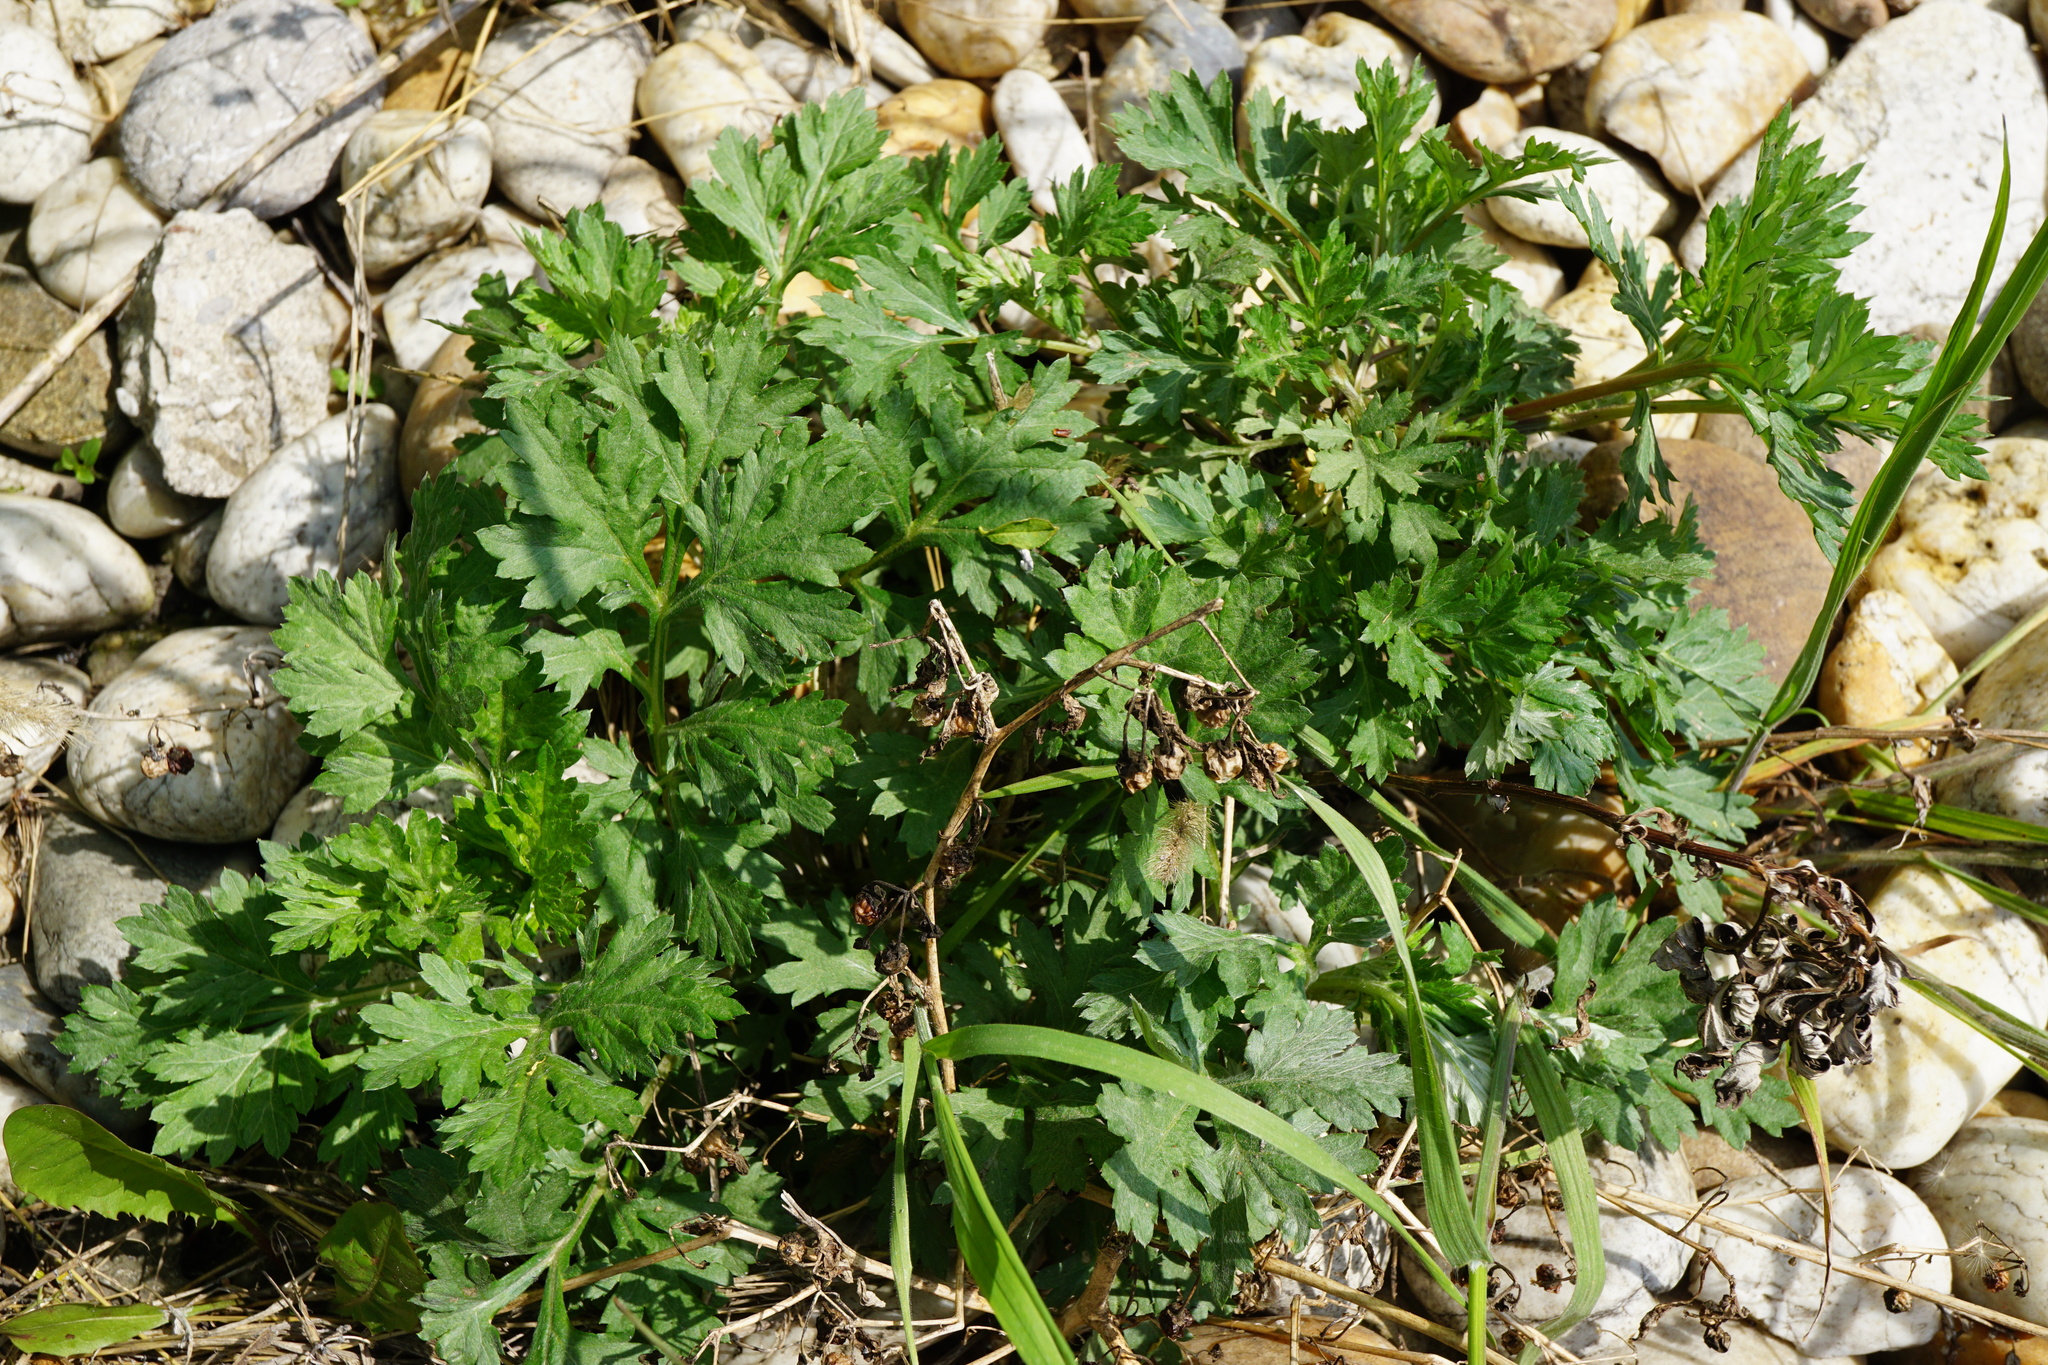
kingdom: Plantae
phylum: Tracheophyta
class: Magnoliopsida
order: Asterales
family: Asteraceae
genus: Artemisia
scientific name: Artemisia vulgaris
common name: Mugwort
